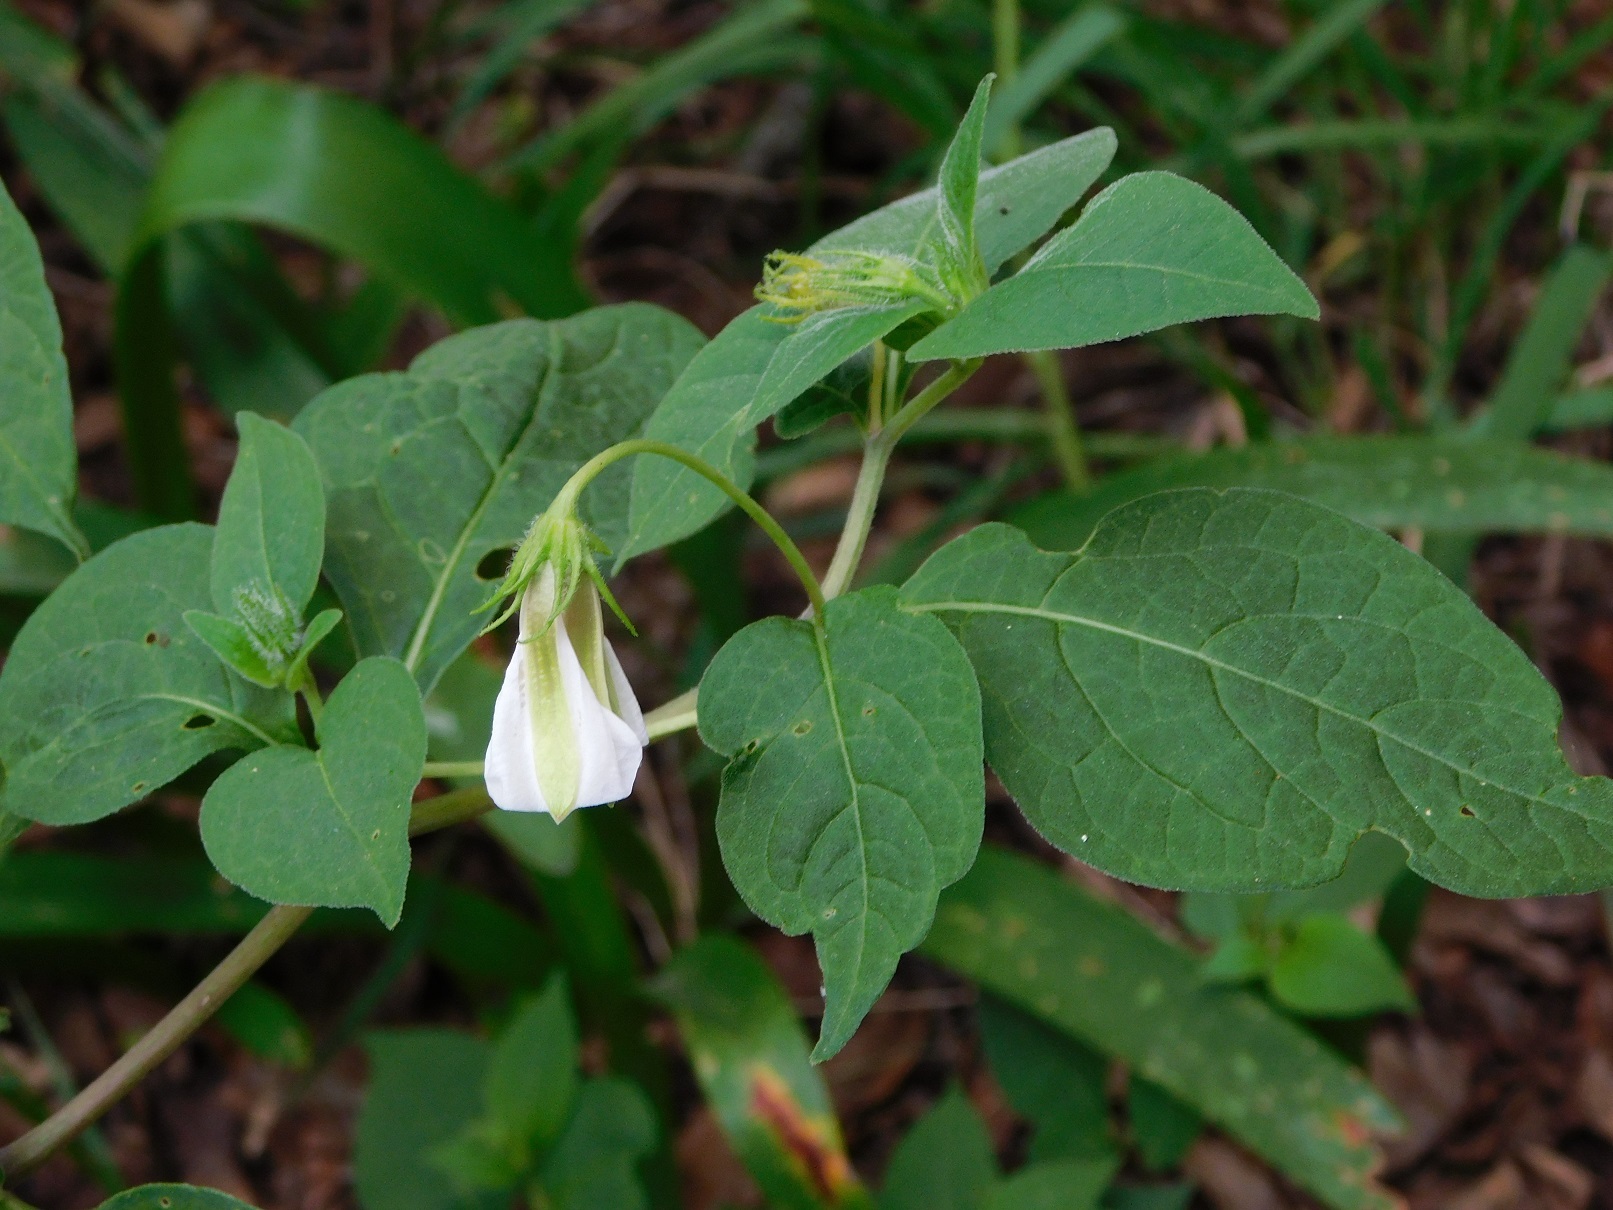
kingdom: Plantae
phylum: Tracheophyta
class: Magnoliopsida
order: Solanales
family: Solanaceae
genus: Lycianthes
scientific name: Lycianthes ciliolata
